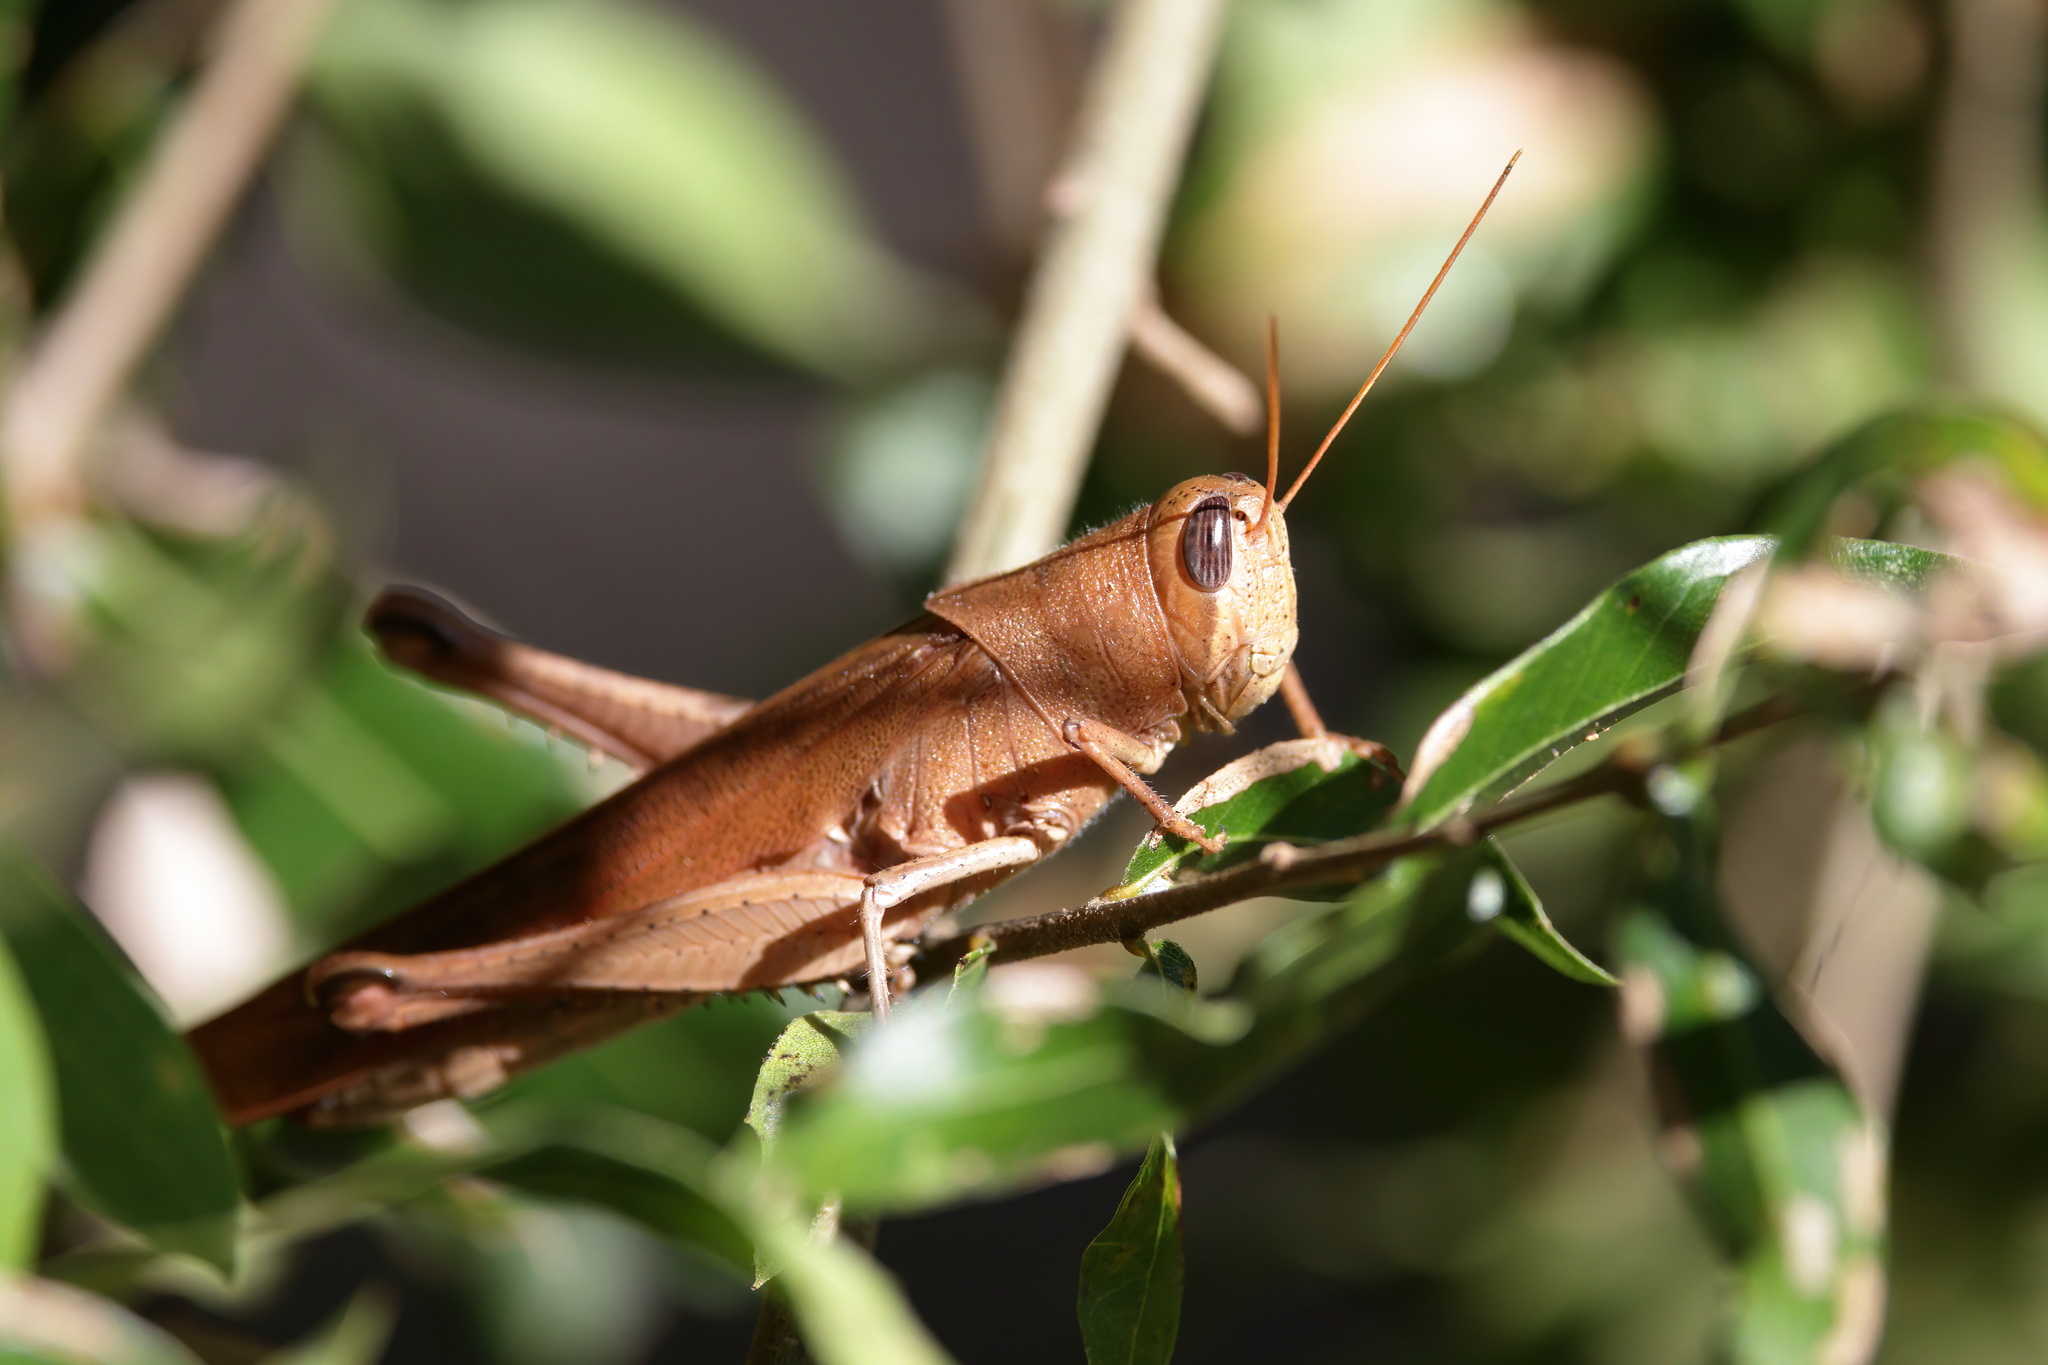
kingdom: Animalia
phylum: Arthropoda
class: Insecta
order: Orthoptera
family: Acrididae
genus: Schistocerca
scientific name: Schistocerca rubiginosa
